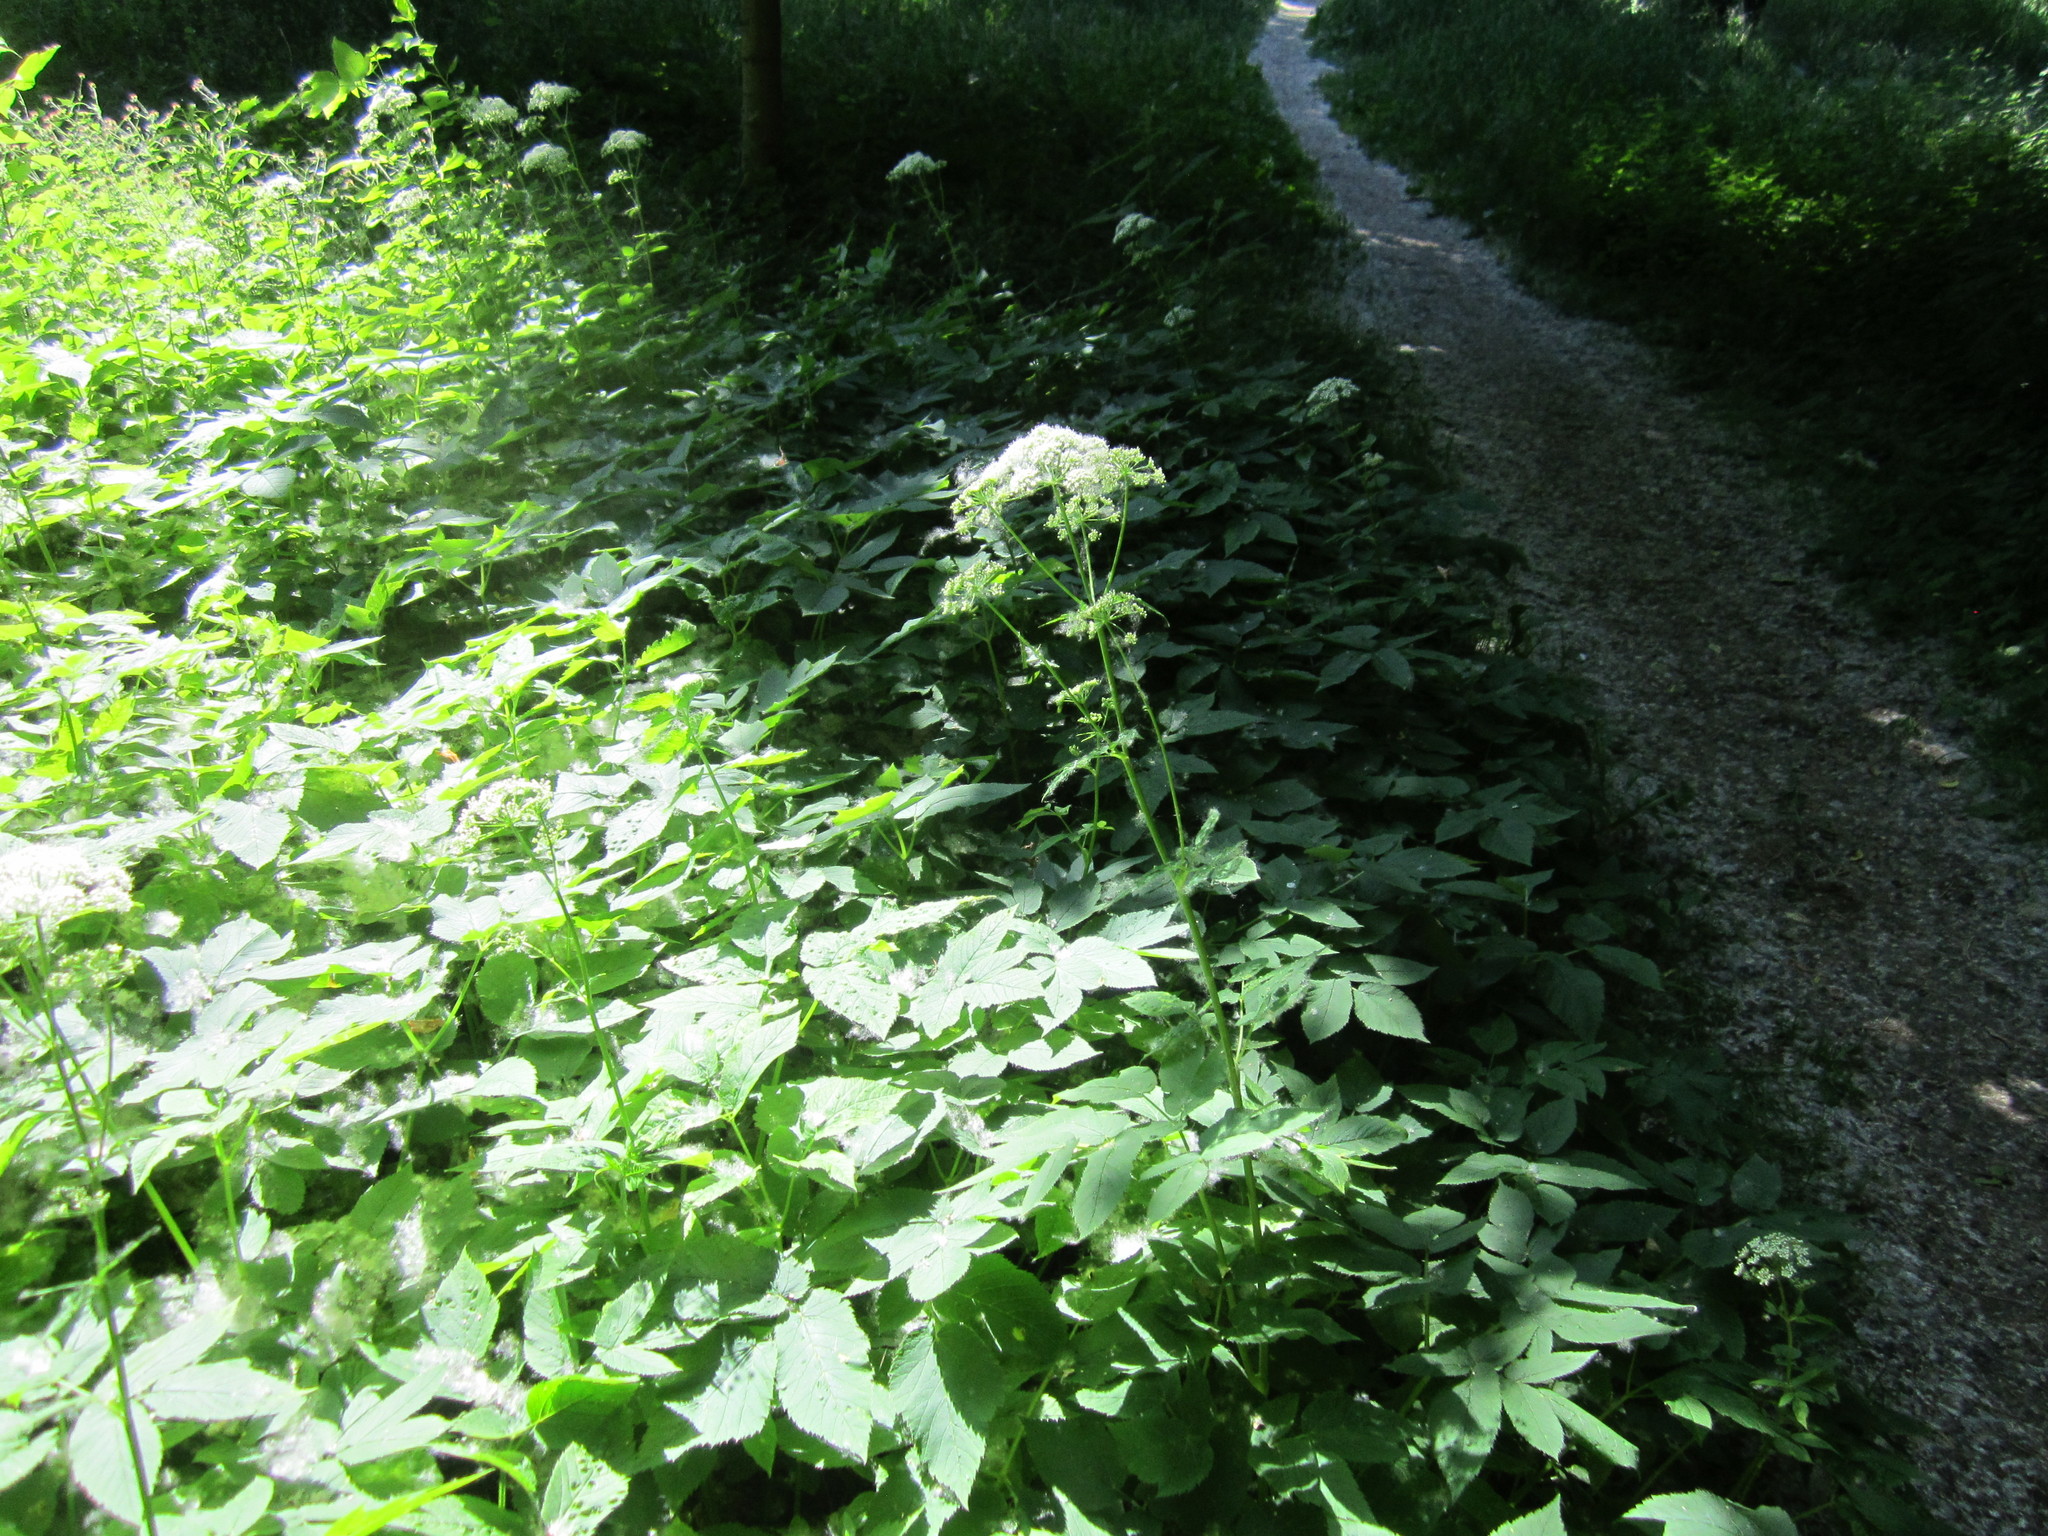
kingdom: Plantae
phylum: Tracheophyta
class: Magnoliopsida
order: Apiales
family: Apiaceae
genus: Aegopodium
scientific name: Aegopodium podagraria
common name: Ground-elder
